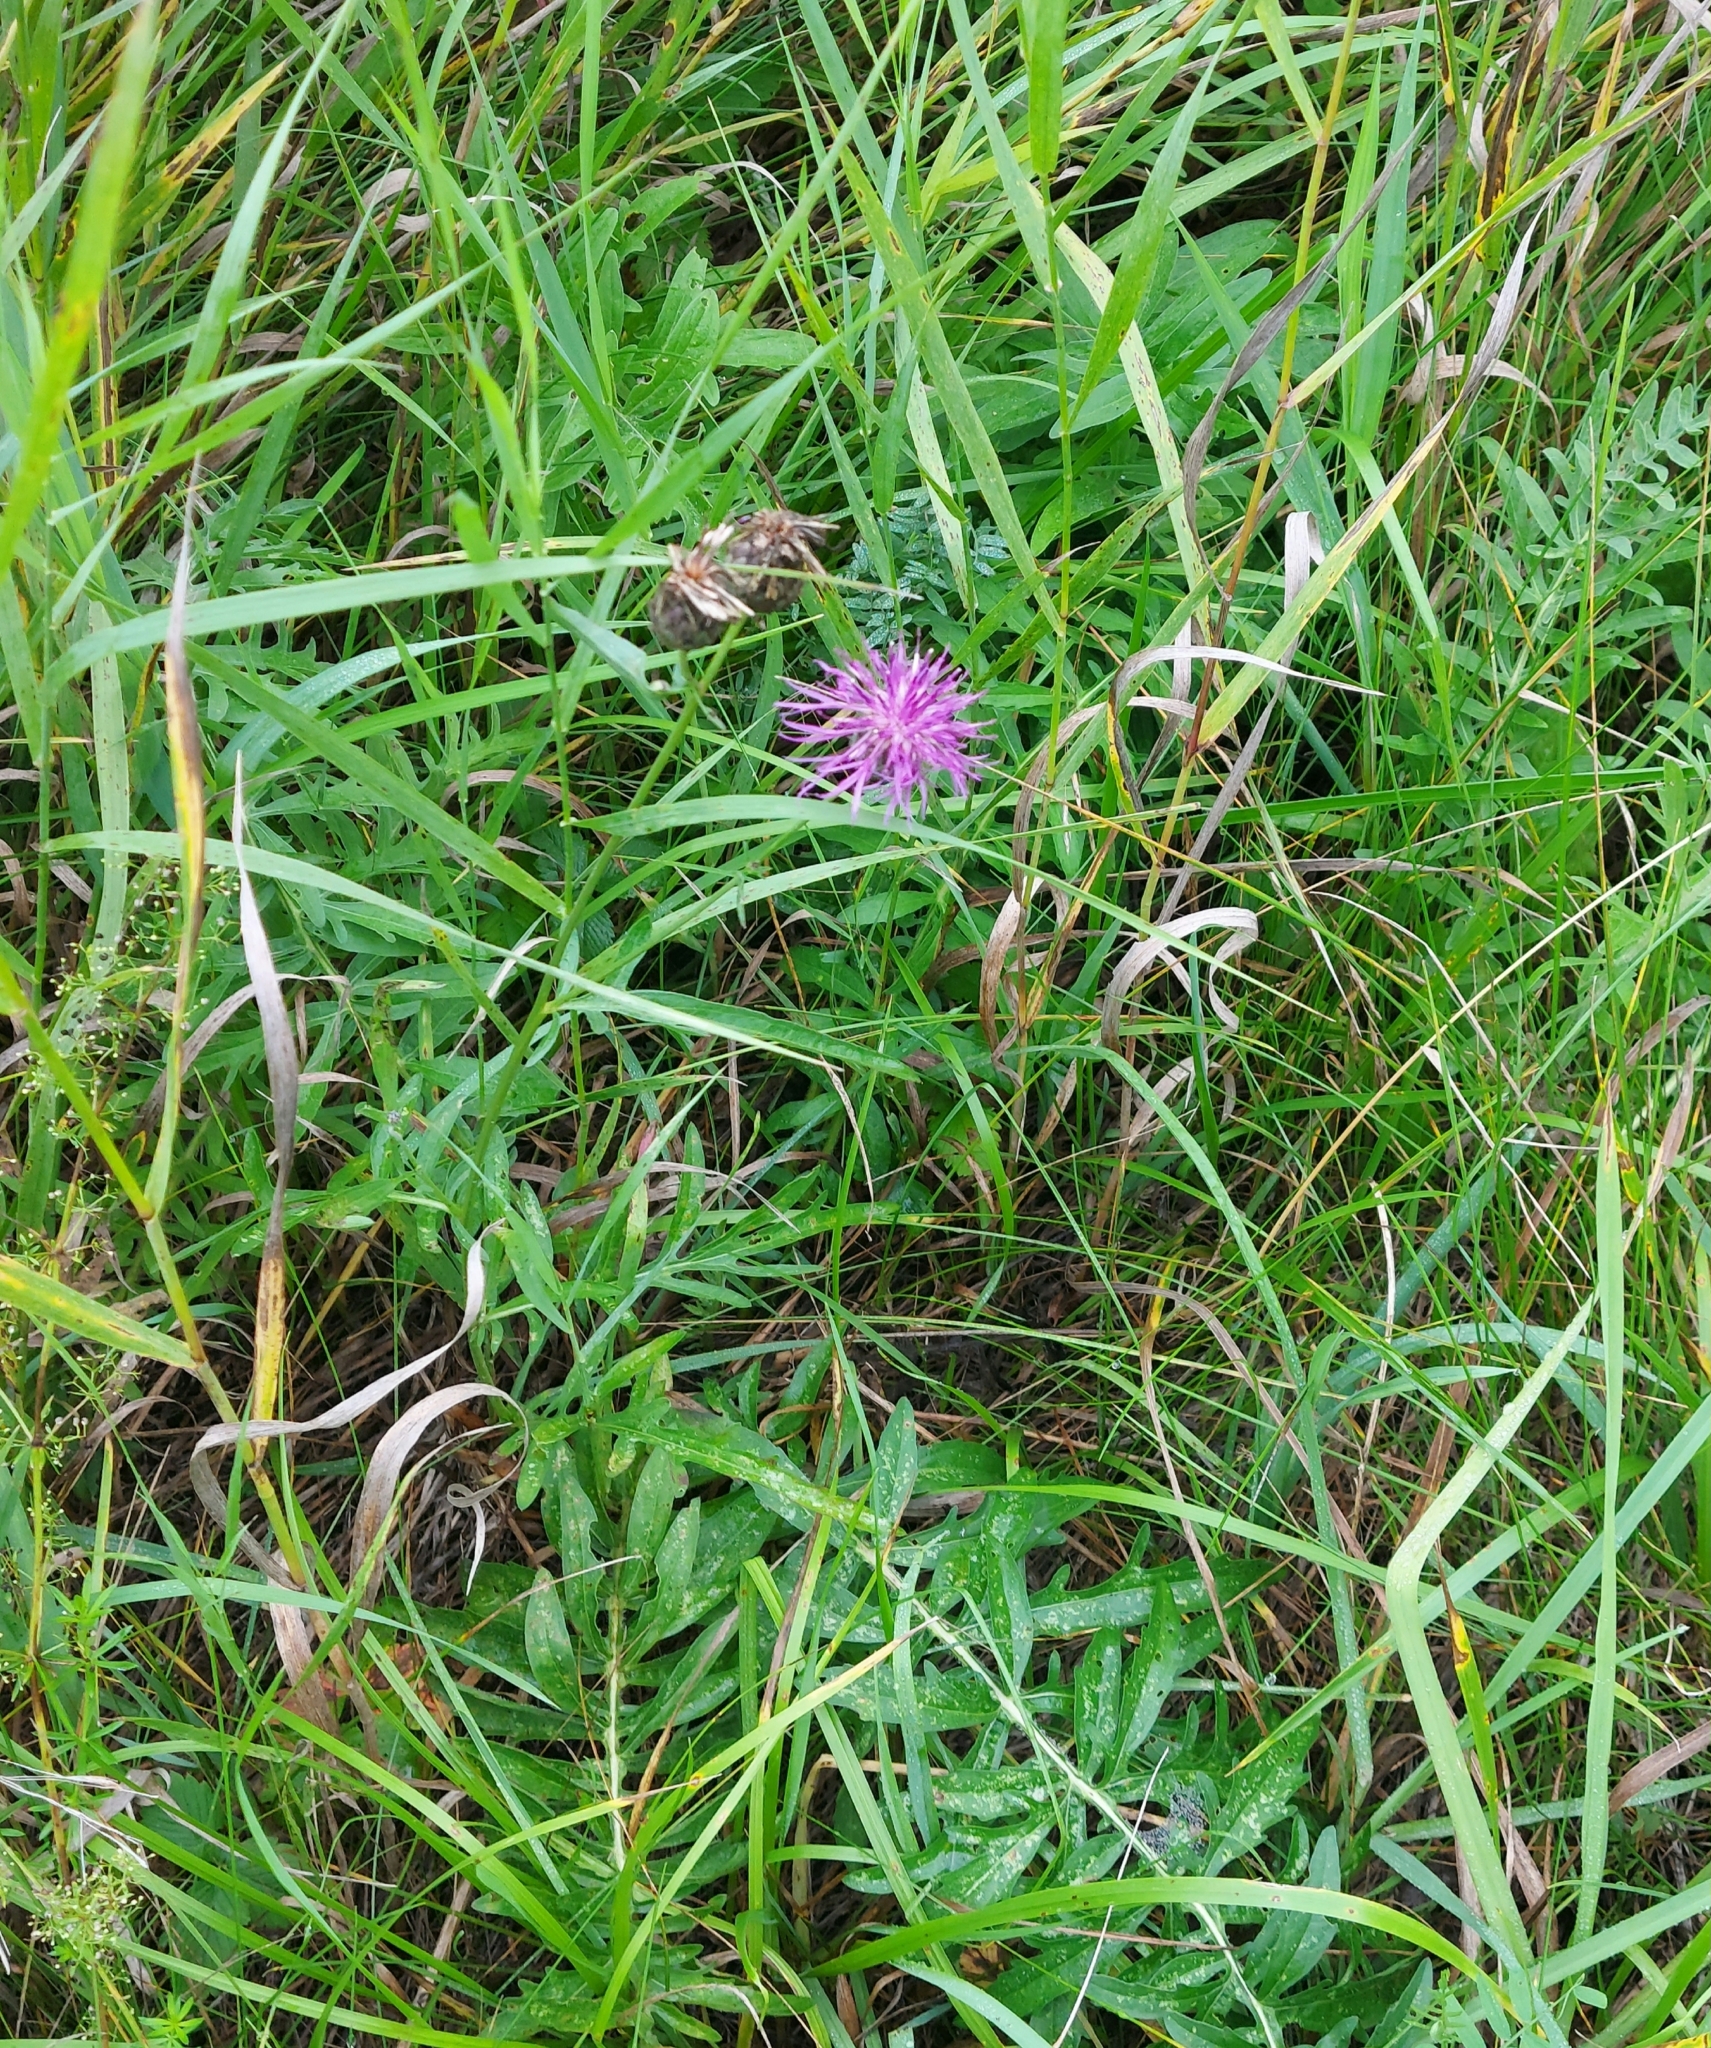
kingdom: Plantae
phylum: Tracheophyta
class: Magnoliopsida
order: Asterales
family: Asteraceae
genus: Centaurea
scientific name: Centaurea scabiosa
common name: Greater knapweed
